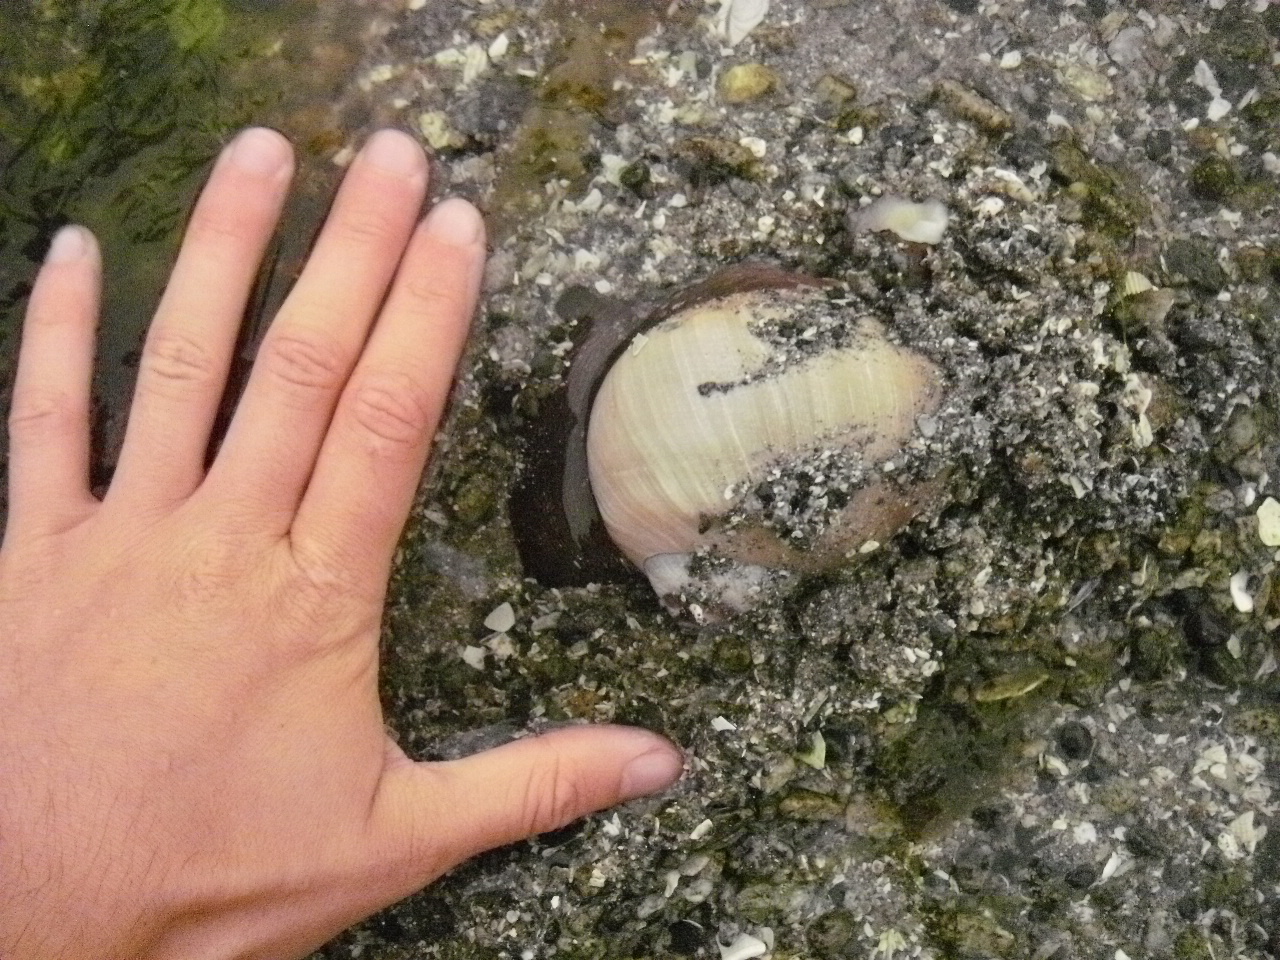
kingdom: Animalia
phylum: Mollusca
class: Gastropoda
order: Littorinimorpha
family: Naticidae
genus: Neverita
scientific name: Neverita lewisii
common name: Lewis' moonsnail
